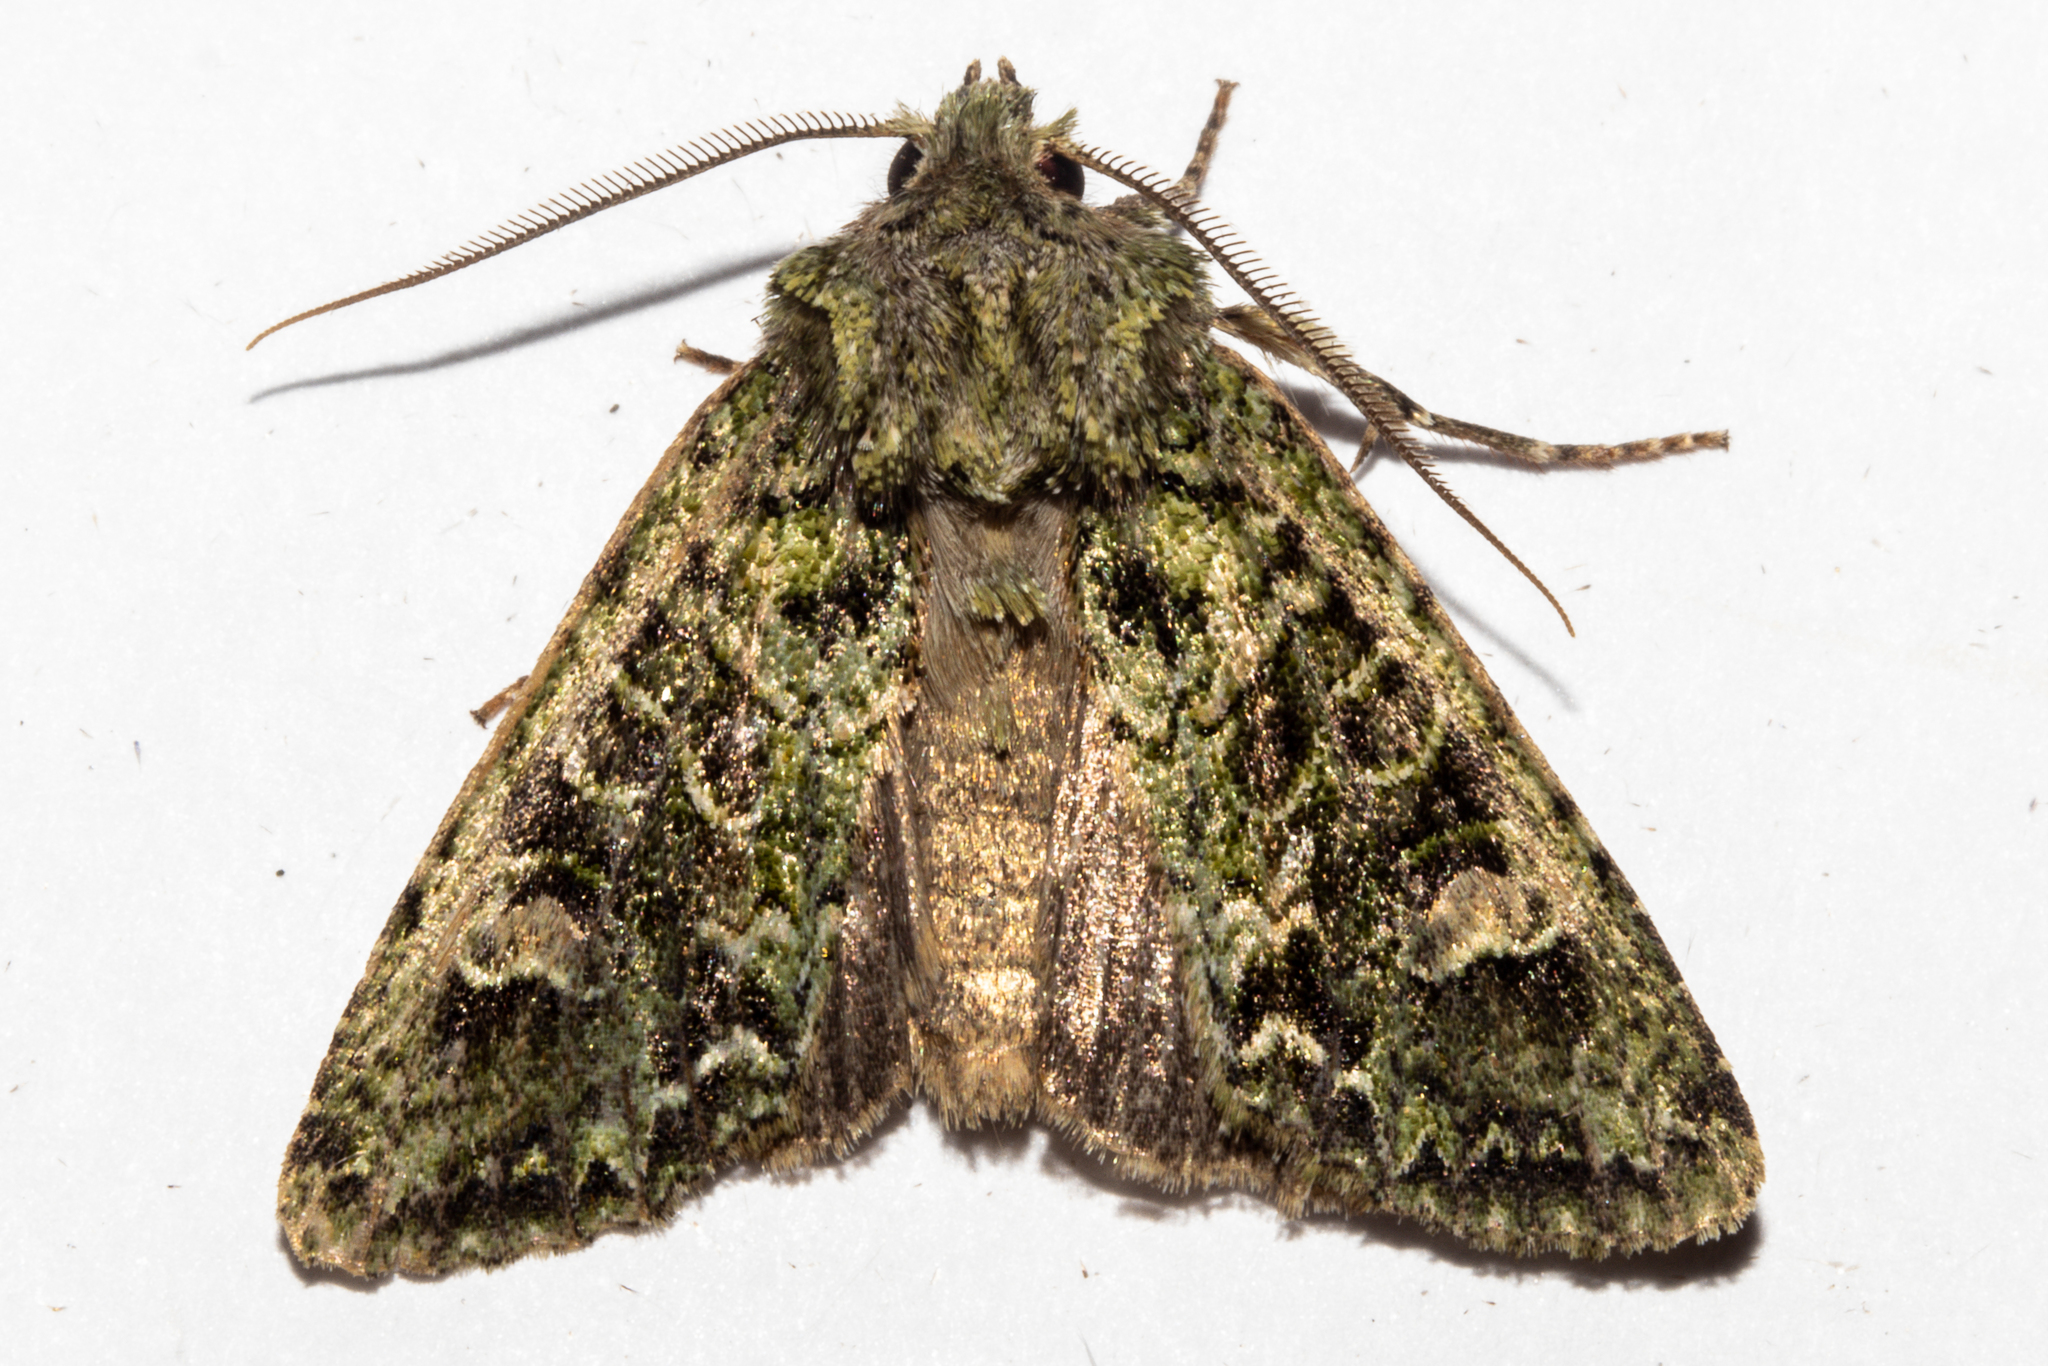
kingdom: Animalia
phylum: Arthropoda
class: Insecta
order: Lepidoptera
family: Noctuidae
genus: Ichneutica
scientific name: Ichneutica
